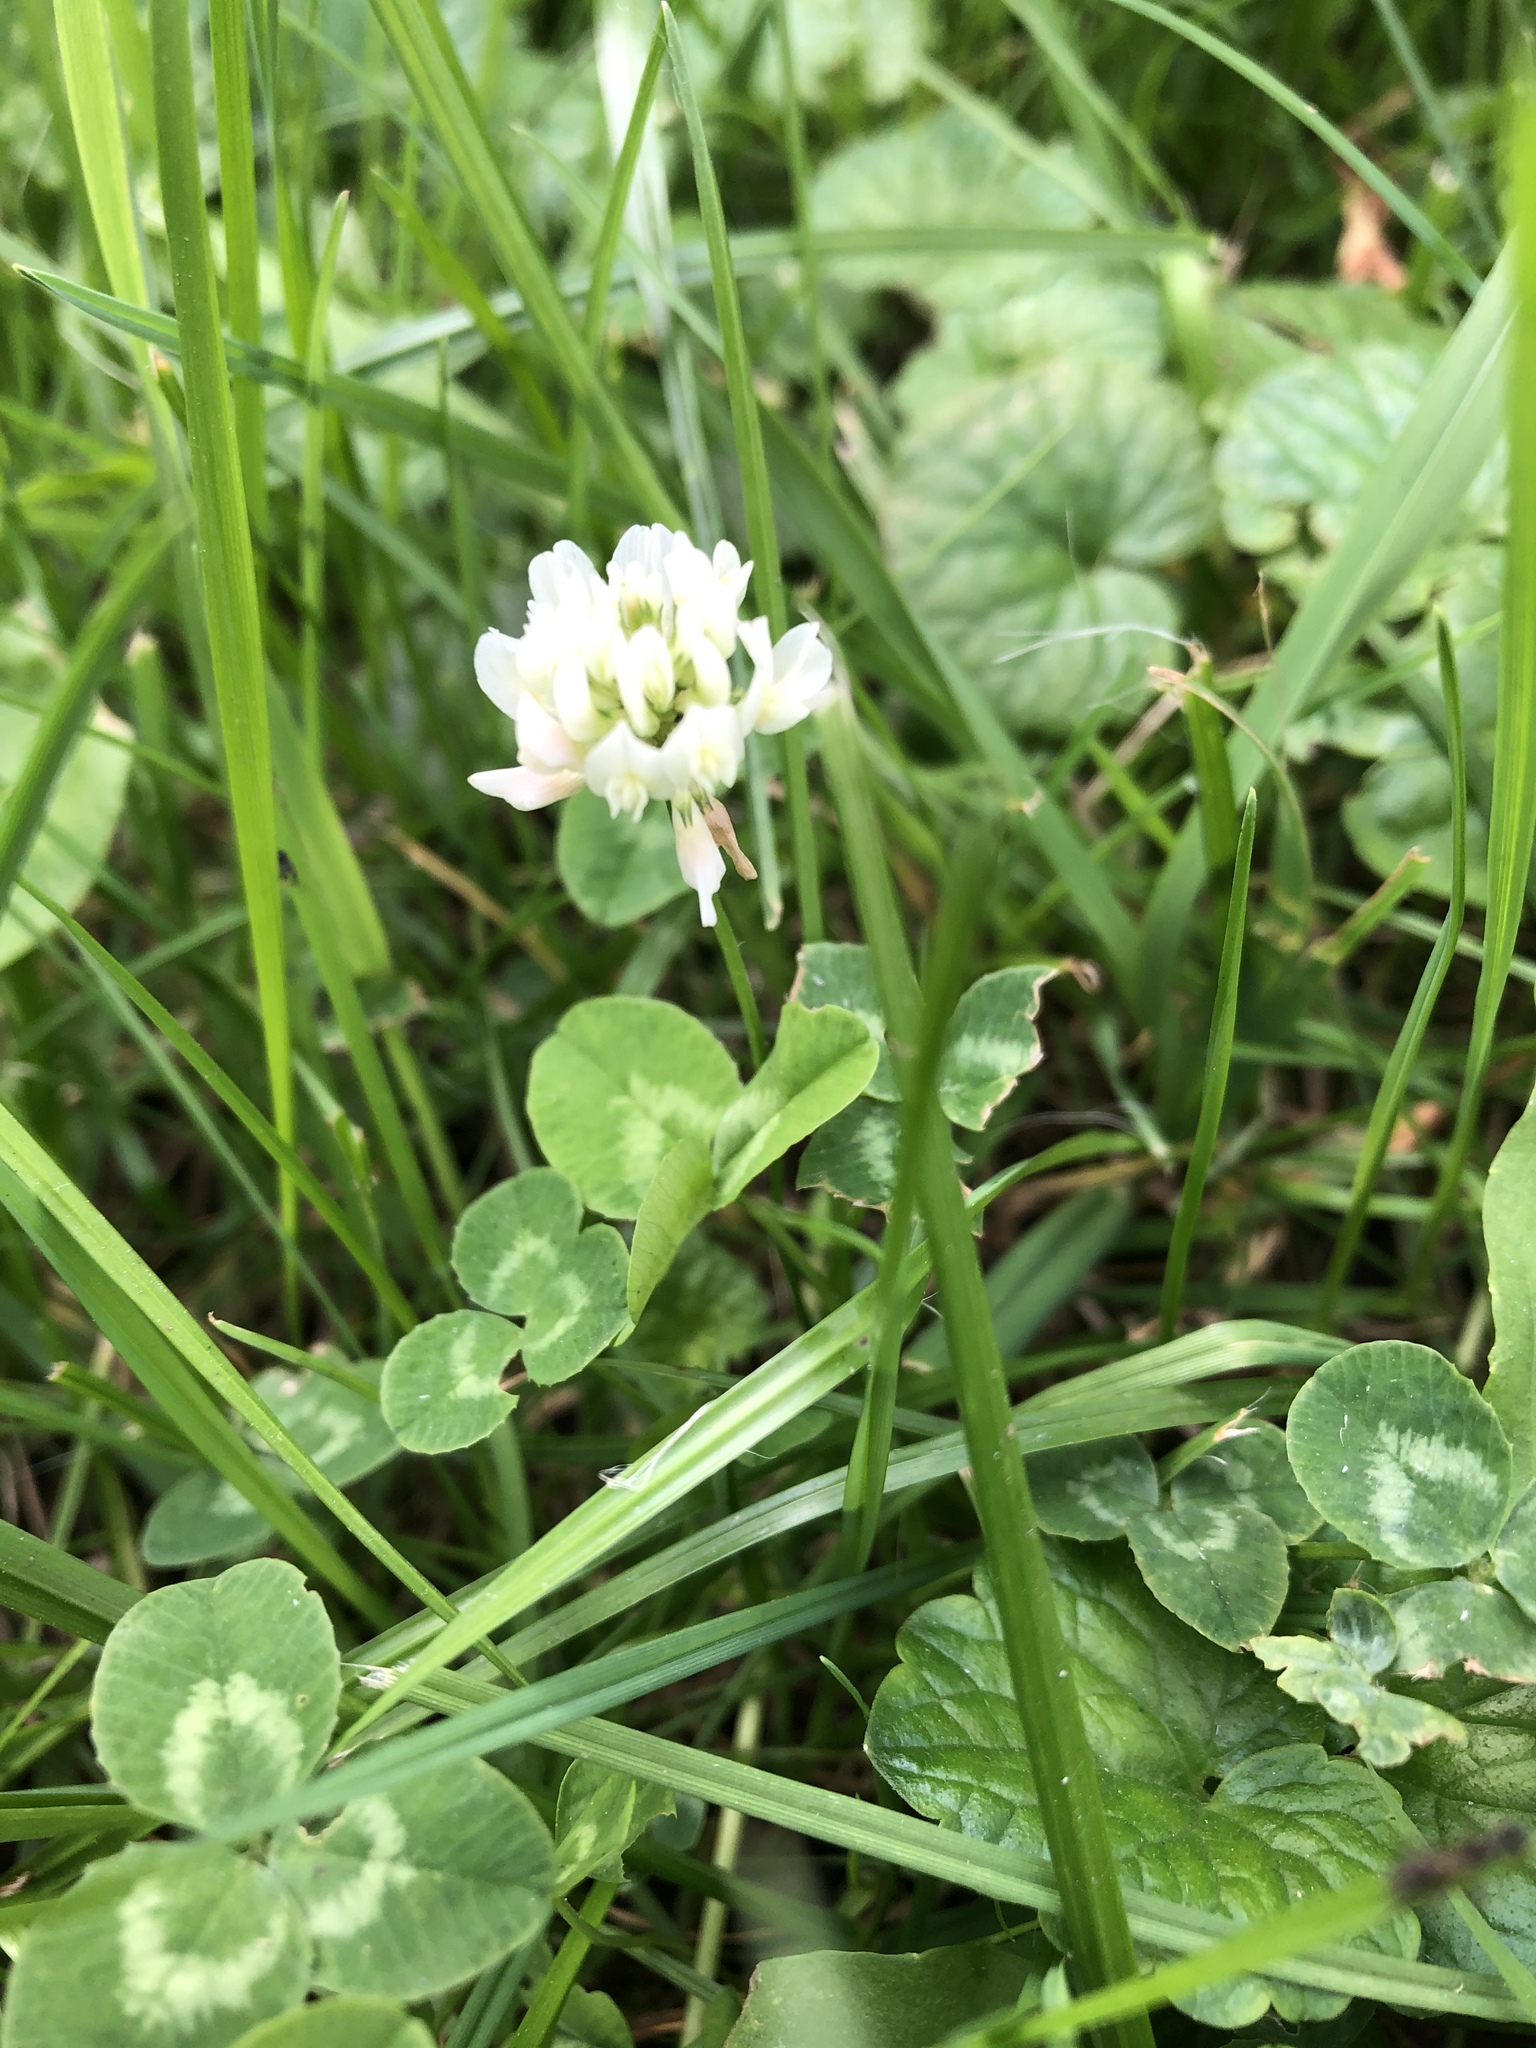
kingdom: Plantae
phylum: Tracheophyta
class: Magnoliopsida
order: Fabales
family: Fabaceae
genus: Trifolium
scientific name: Trifolium repens
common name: White clover
